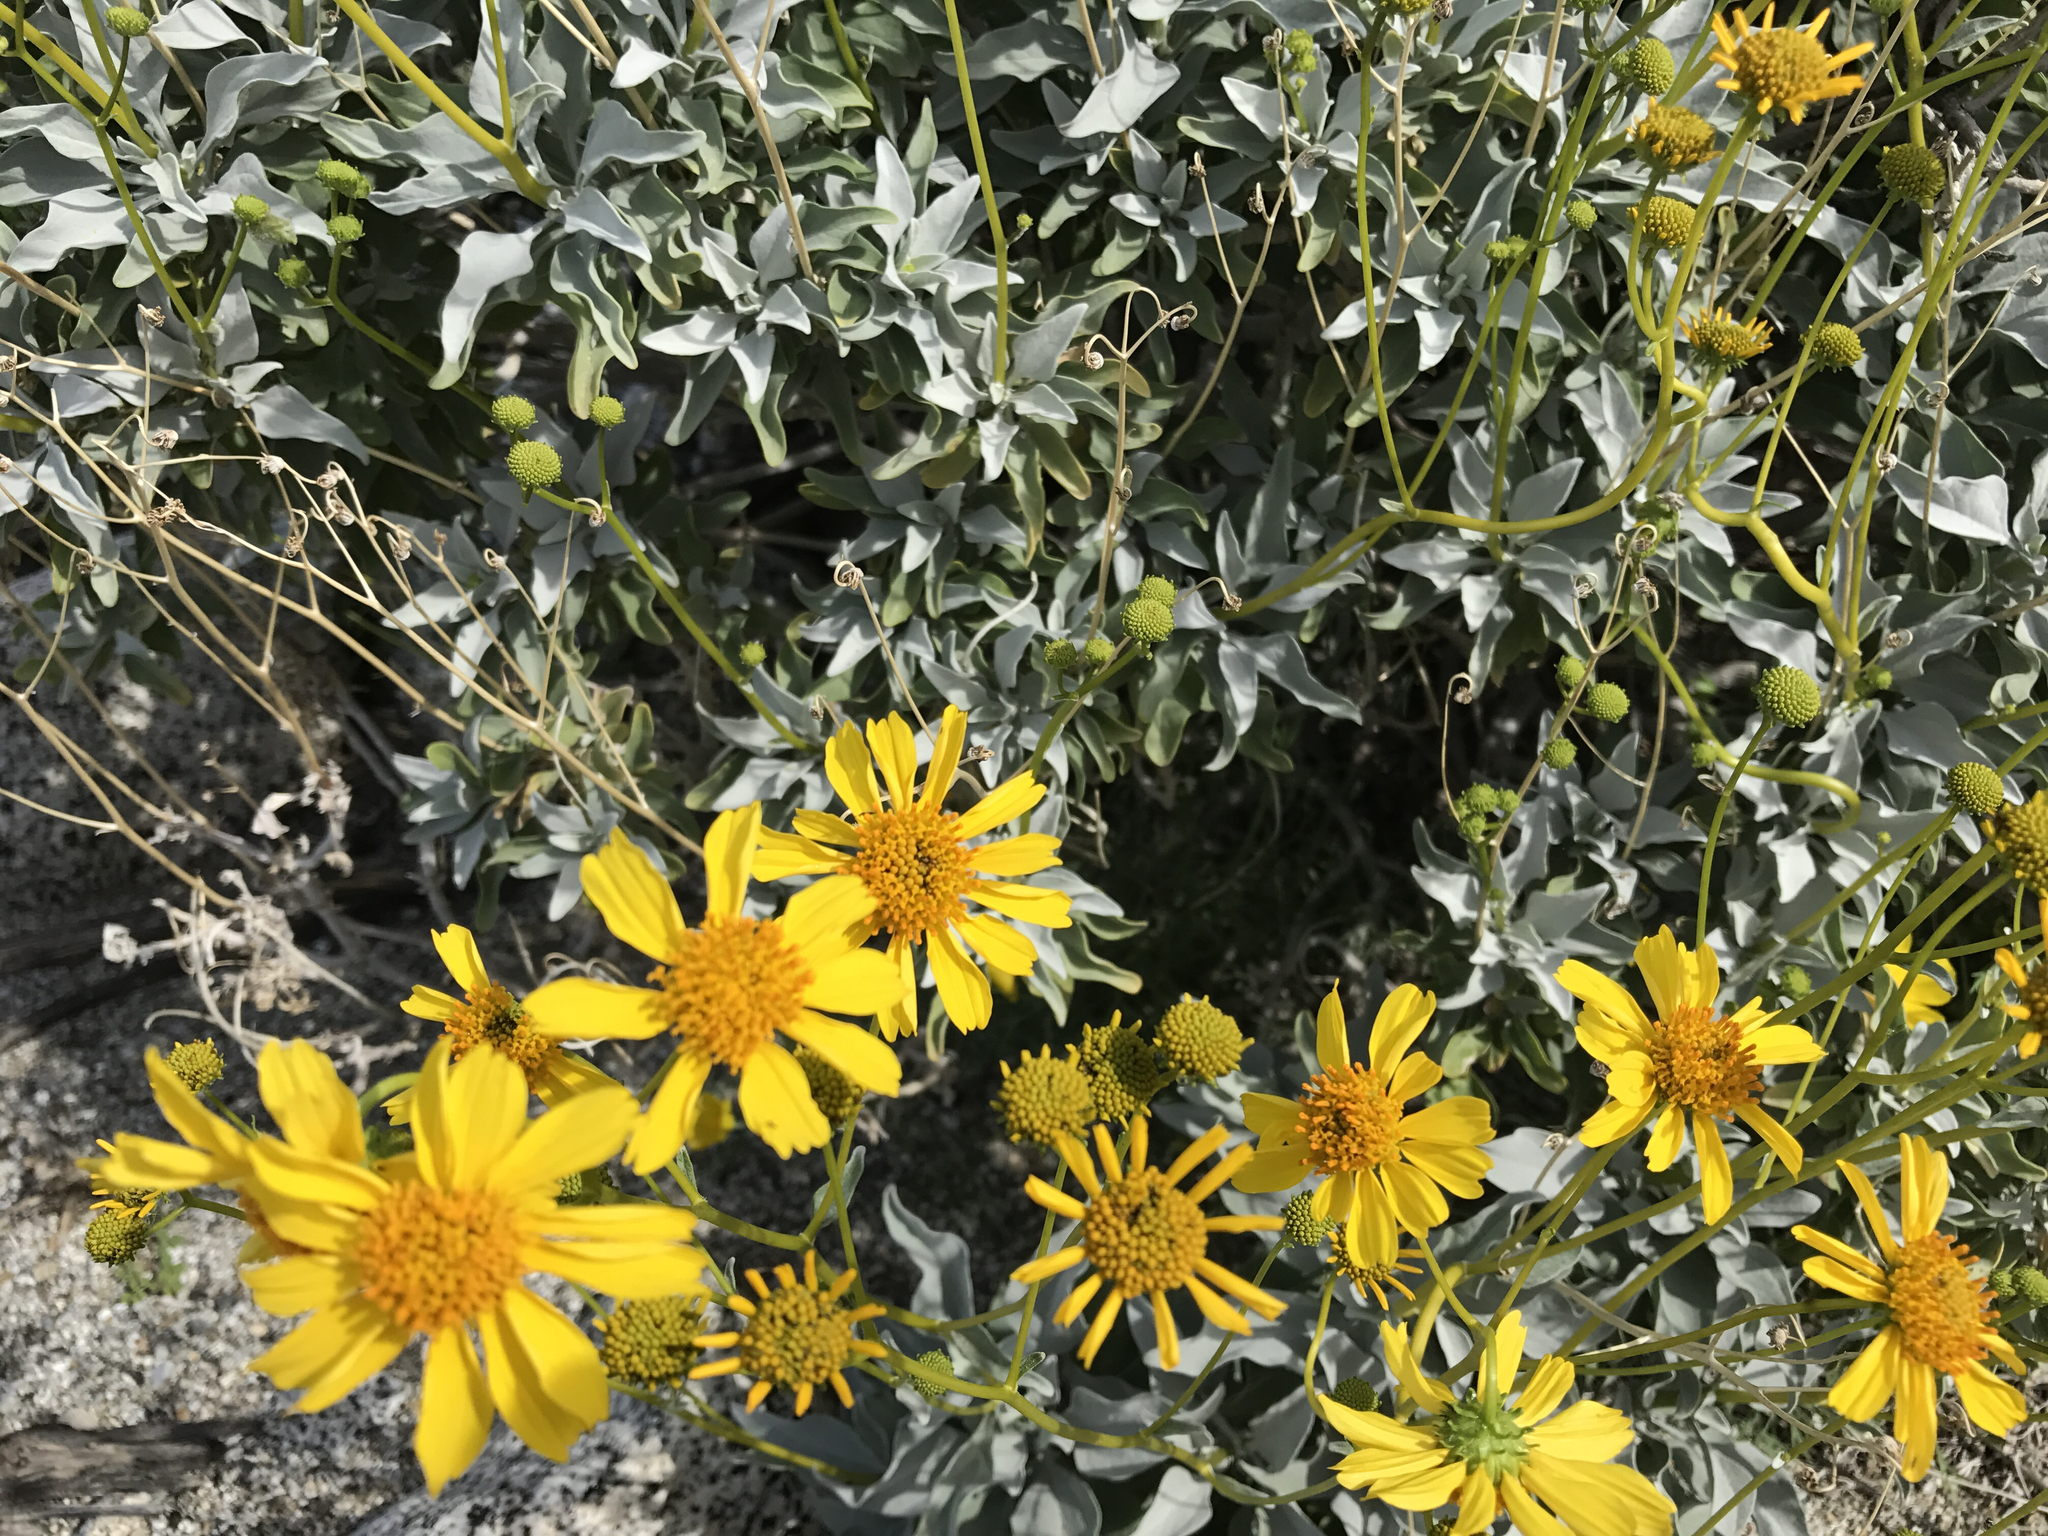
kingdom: Plantae
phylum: Tracheophyta
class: Magnoliopsida
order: Asterales
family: Asteraceae
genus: Encelia
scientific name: Encelia farinosa
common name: Brittlebush
